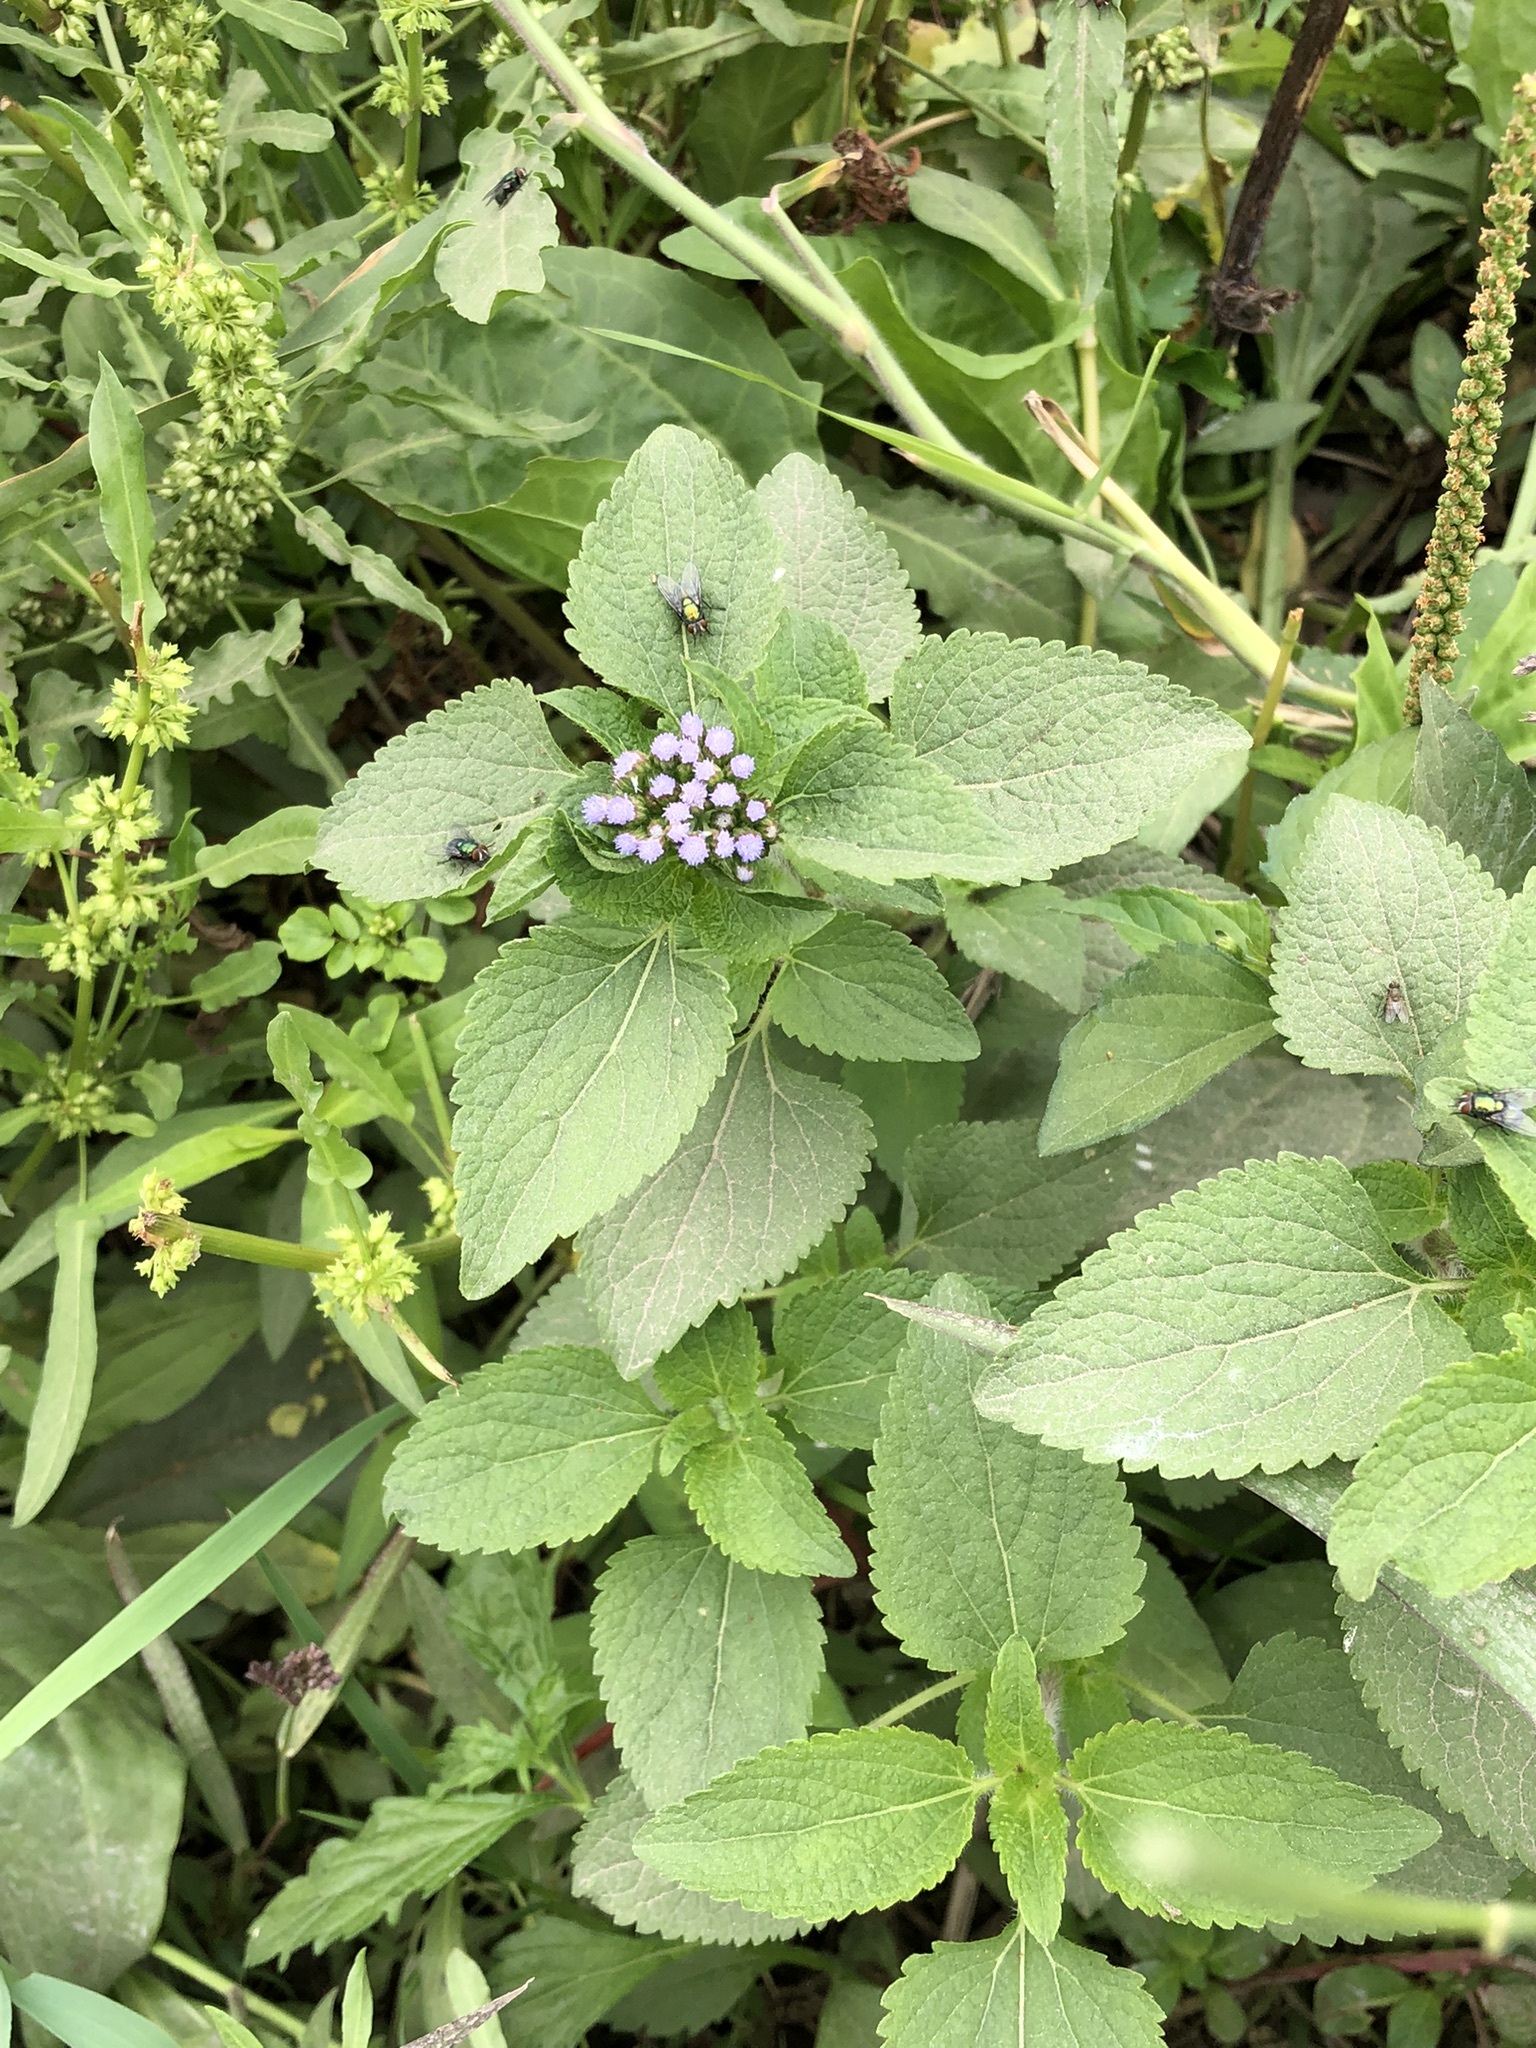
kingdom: Plantae
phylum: Tracheophyta
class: Magnoliopsida
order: Asterales
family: Asteraceae
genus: Ageratum
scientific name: Ageratum conyzoides
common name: Tropical whiteweed
